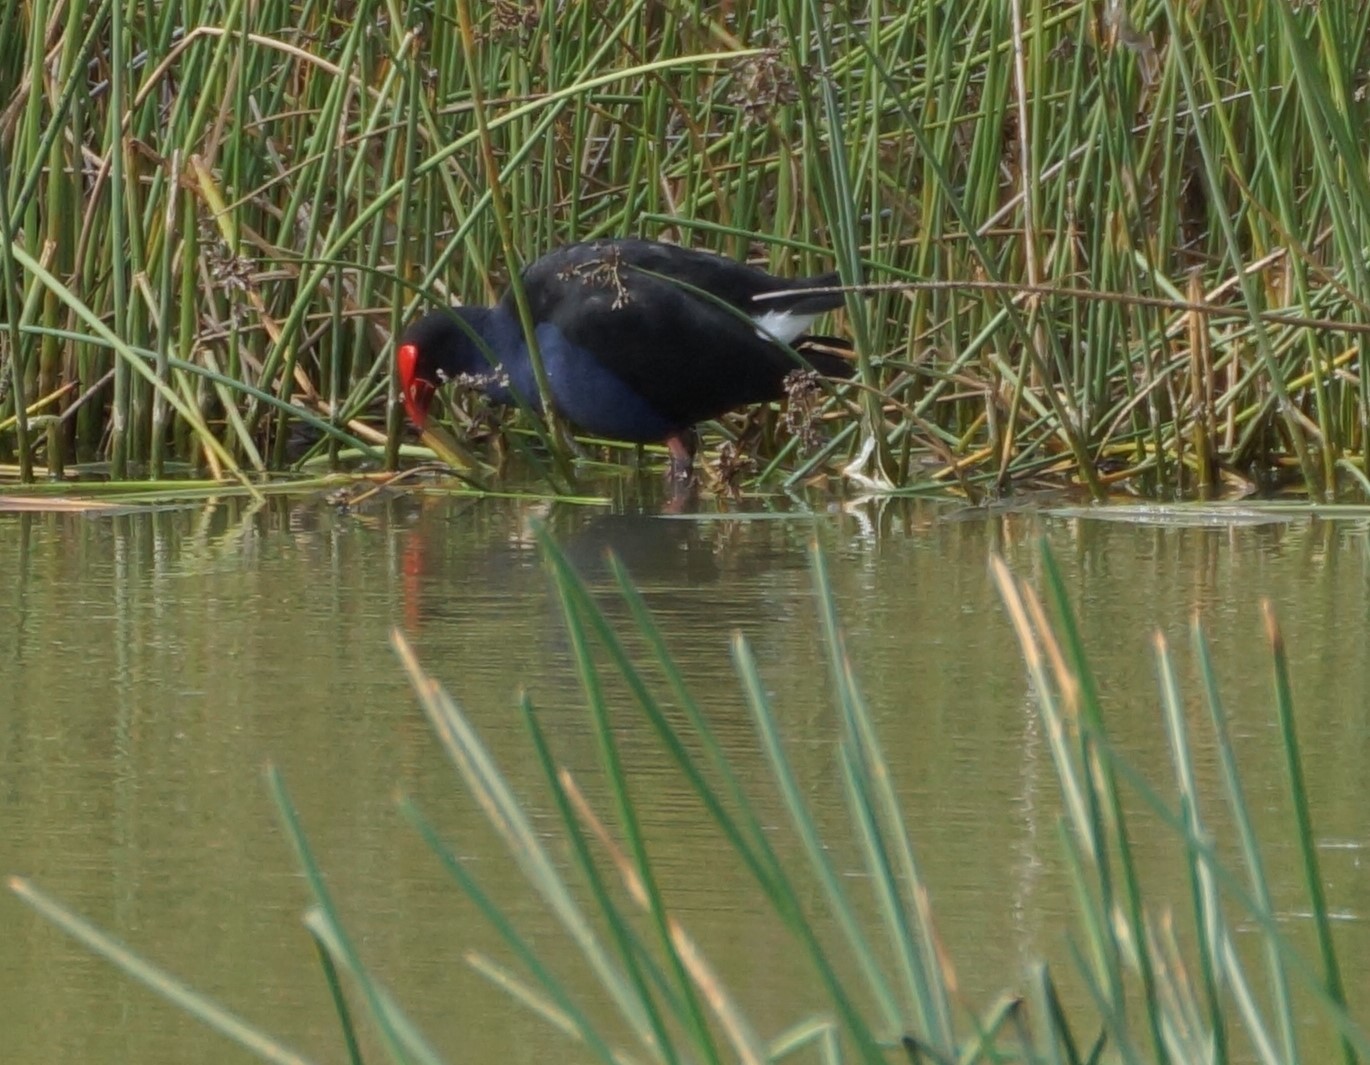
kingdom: Animalia
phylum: Chordata
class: Aves
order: Gruiformes
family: Rallidae
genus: Porphyrio
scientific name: Porphyrio melanotus
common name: Australasian swamphen
